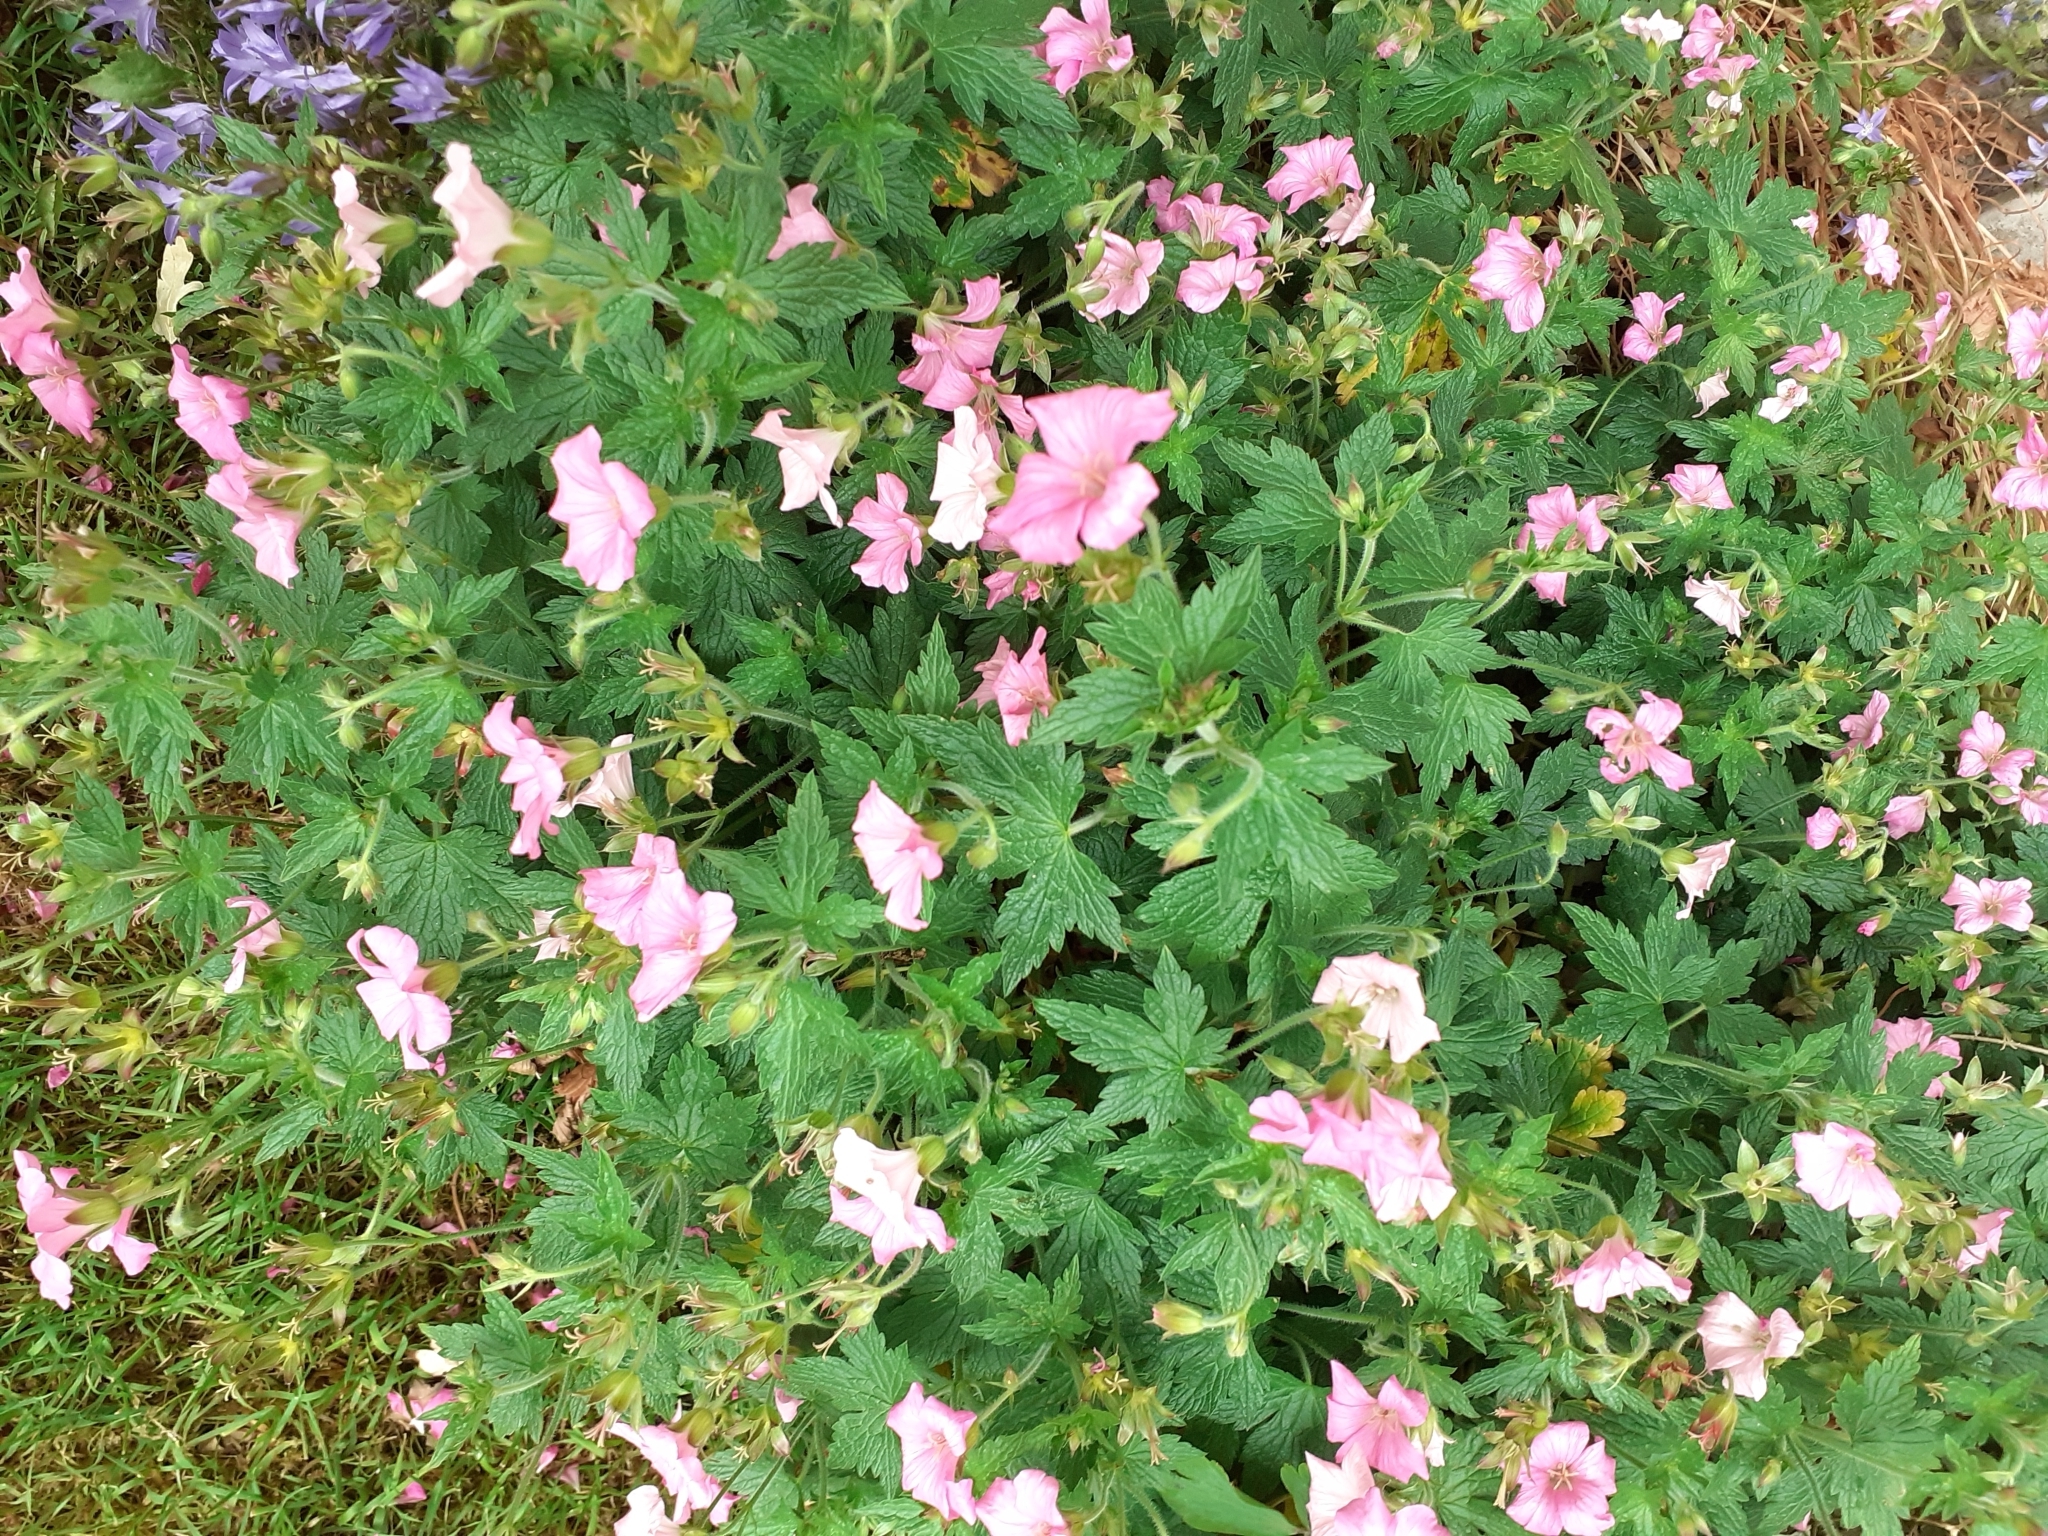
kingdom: Plantae
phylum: Tracheophyta
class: Magnoliopsida
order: Geraniales
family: Geraniaceae
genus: Geranium
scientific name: Geranium oxonianum
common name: Druce's crane's-bill
